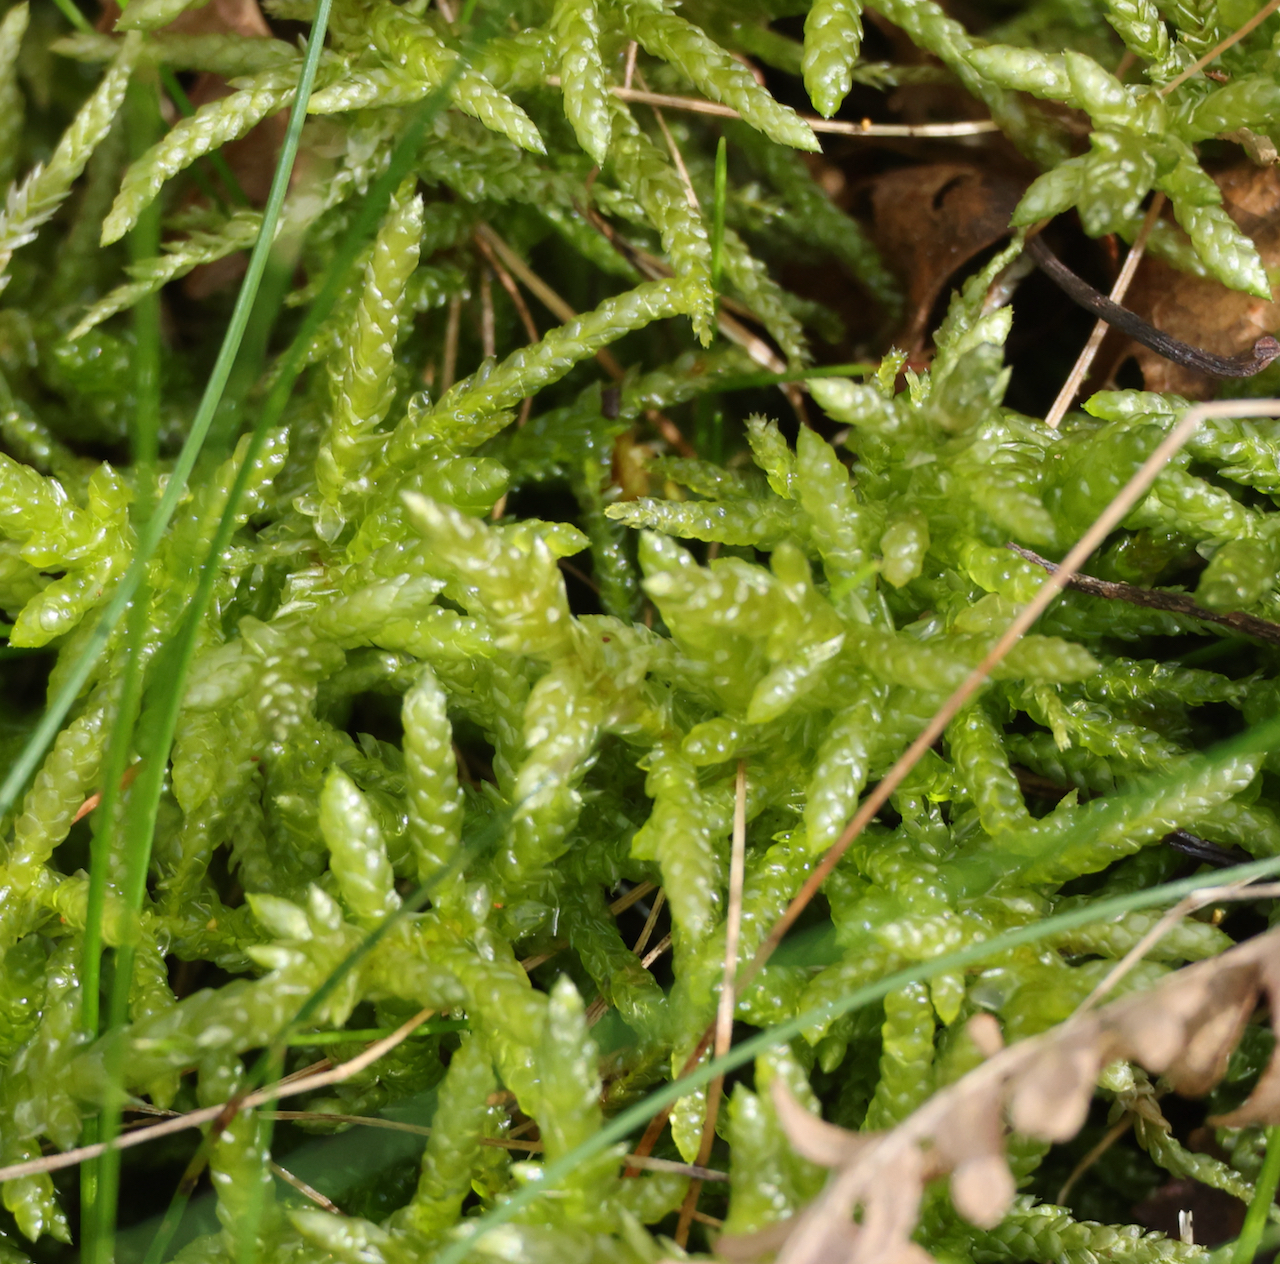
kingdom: Plantae
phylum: Bryophyta
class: Bryopsida
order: Hypnales
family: Brachytheciaceae
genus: Pseudoscleropodium
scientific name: Pseudoscleropodium purum
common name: Neat feather-moss
